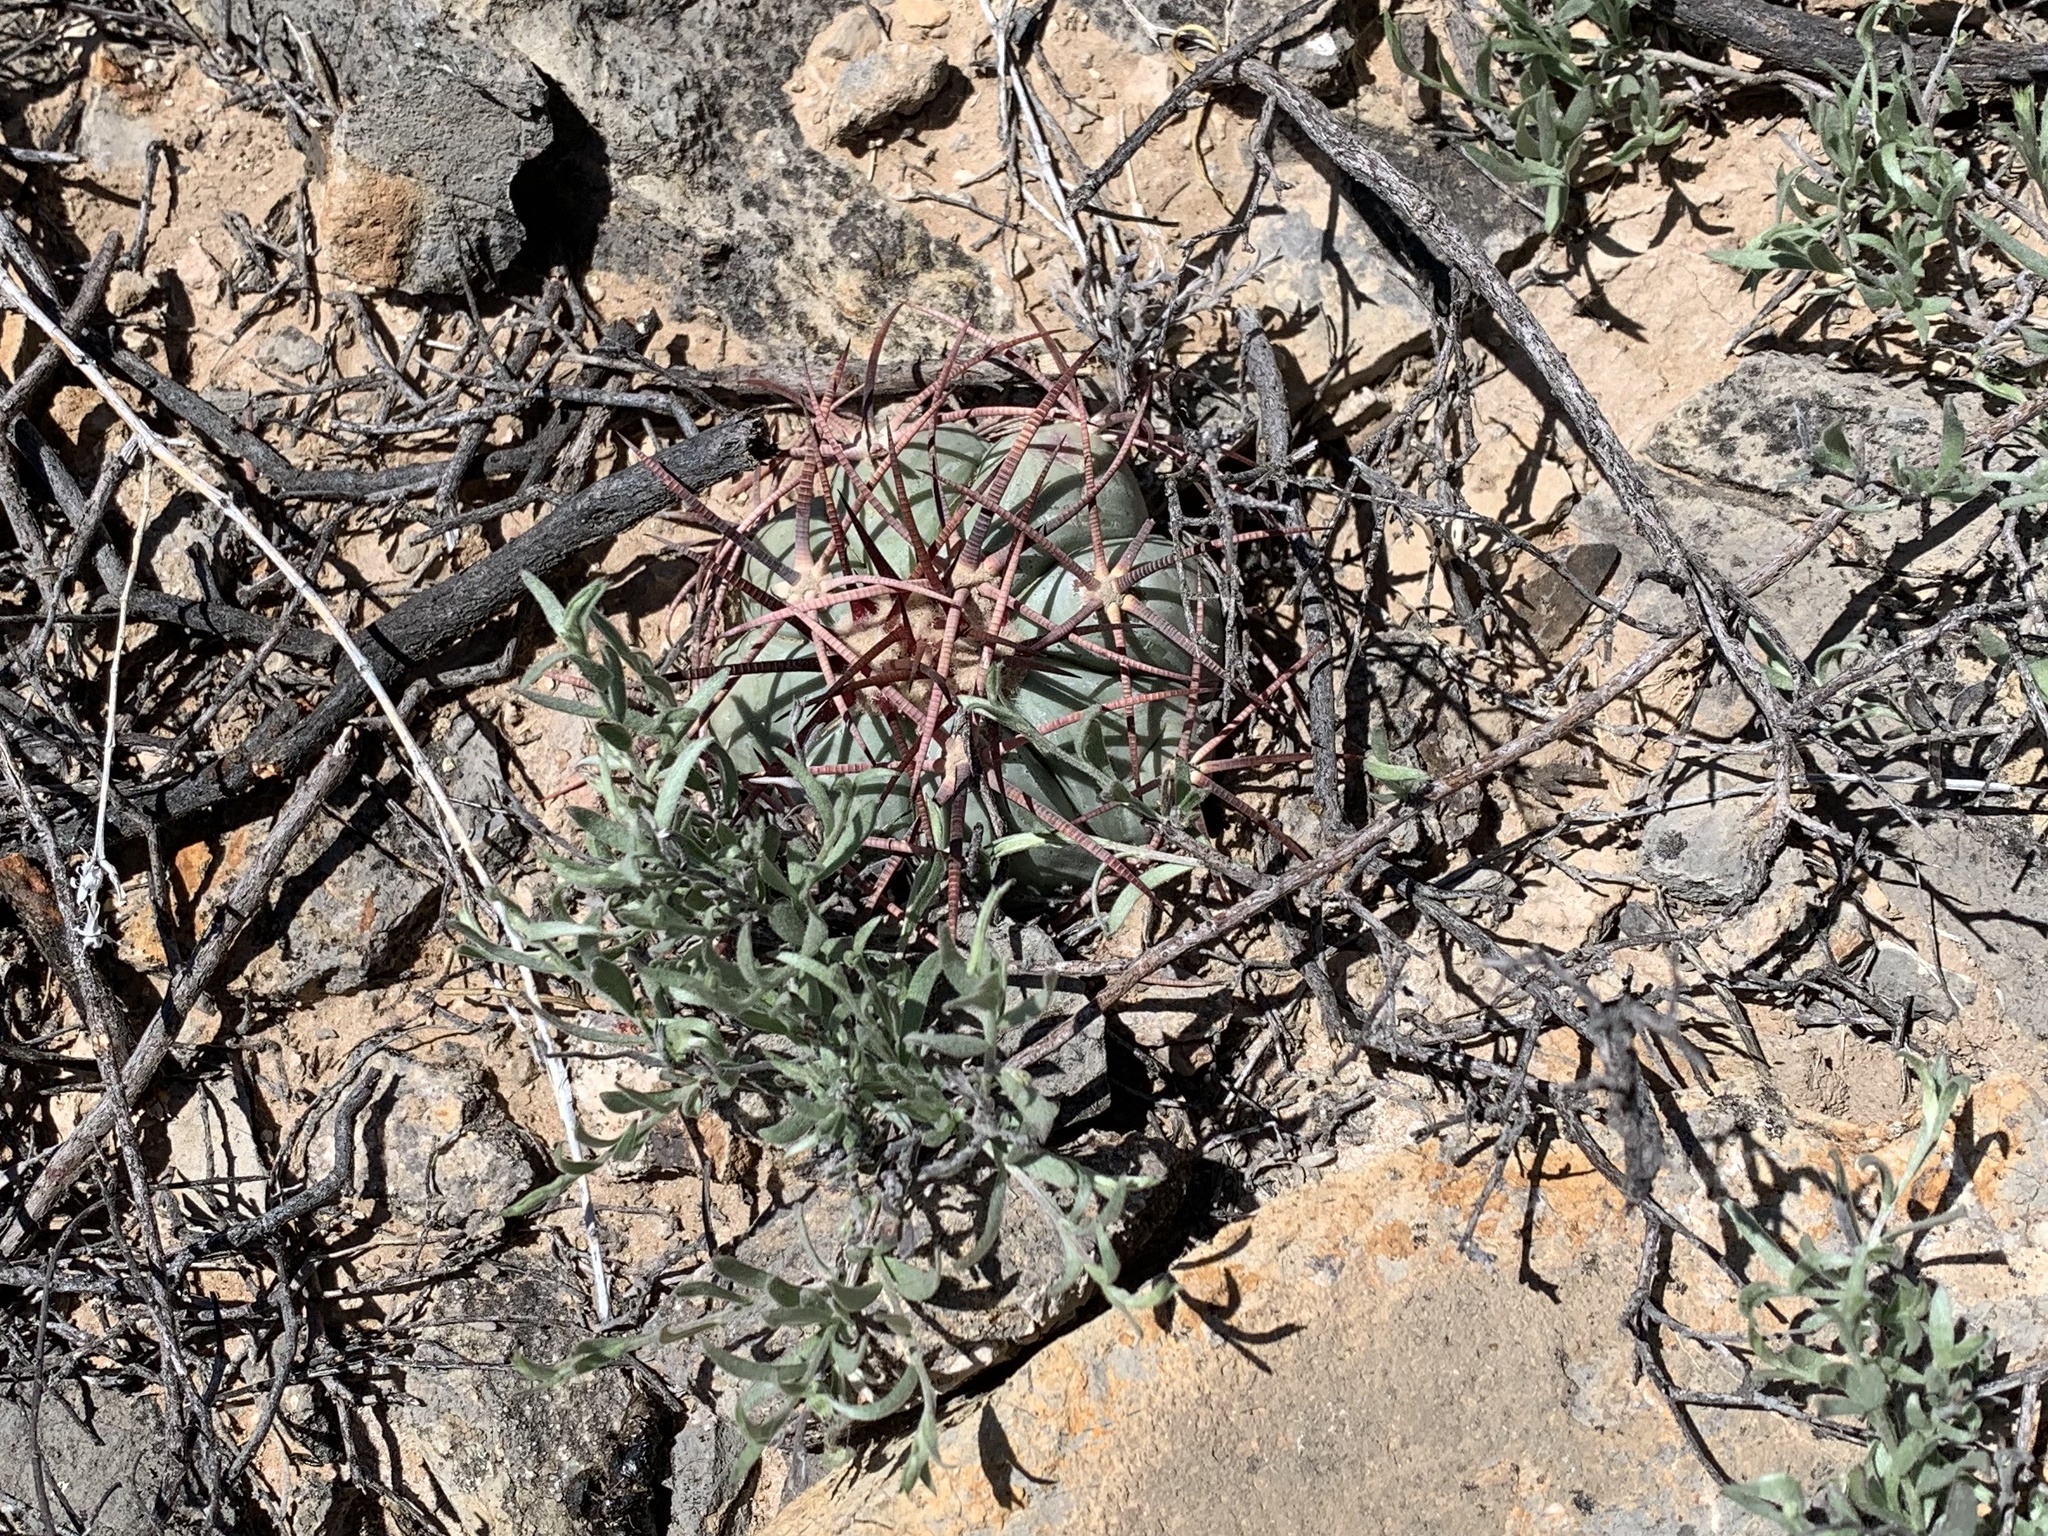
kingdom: Plantae
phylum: Tracheophyta
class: Magnoliopsida
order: Caryophyllales
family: Cactaceae
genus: Echinocactus
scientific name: Echinocactus horizonthalonius
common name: Devilshead
